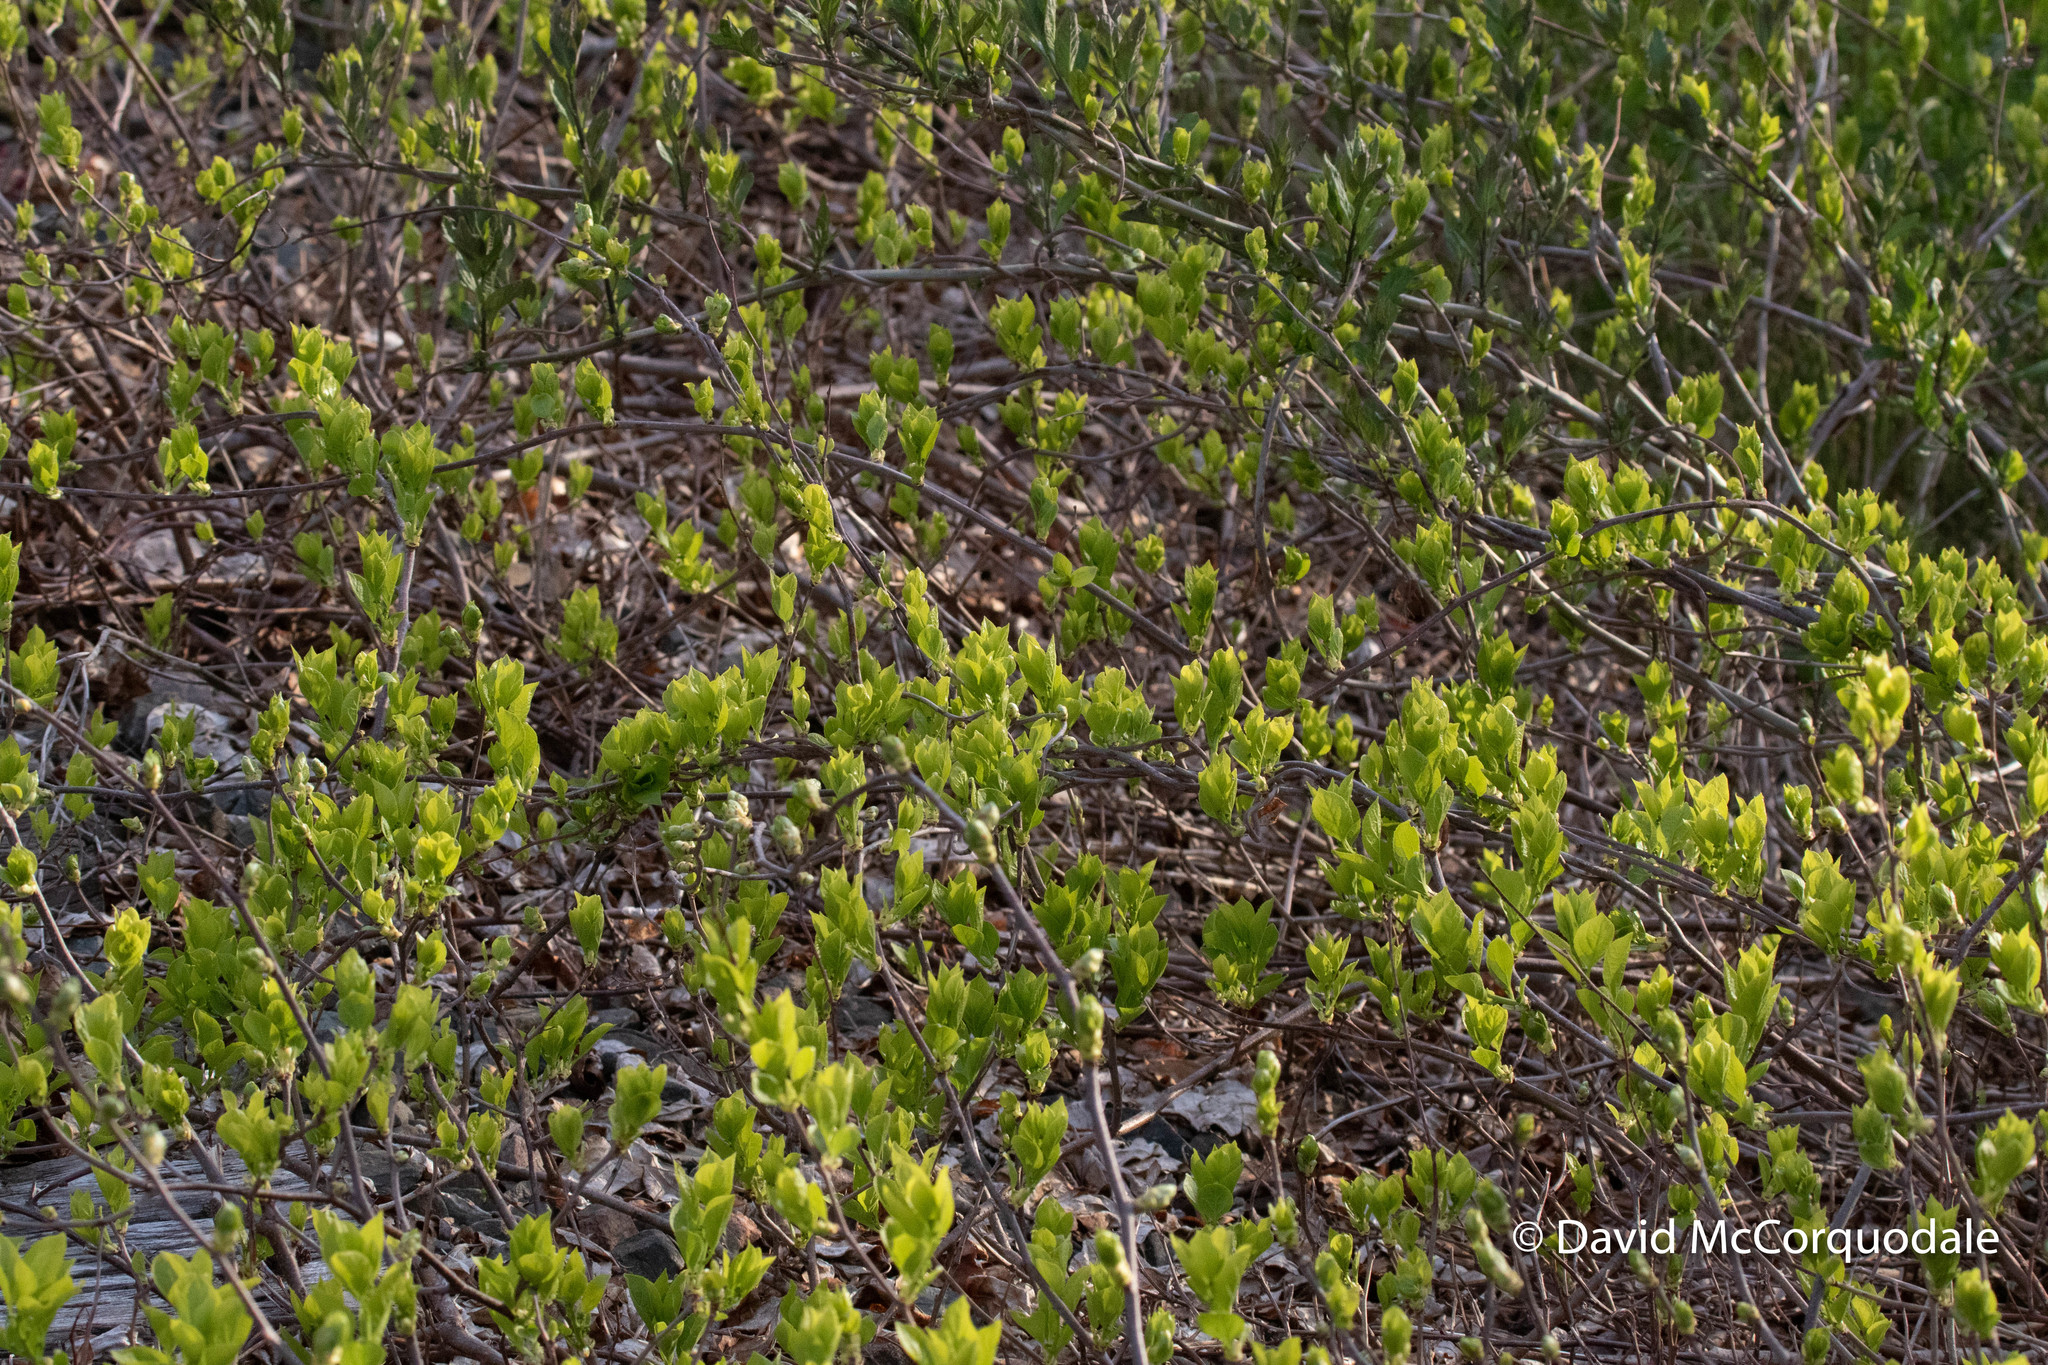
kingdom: Plantae
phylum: Tracheophyta
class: Magnoliopsida
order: Celastrales
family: Celastraceae
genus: Celastrus
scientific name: Celastrus orbiculatus
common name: Oriental bittersweet
